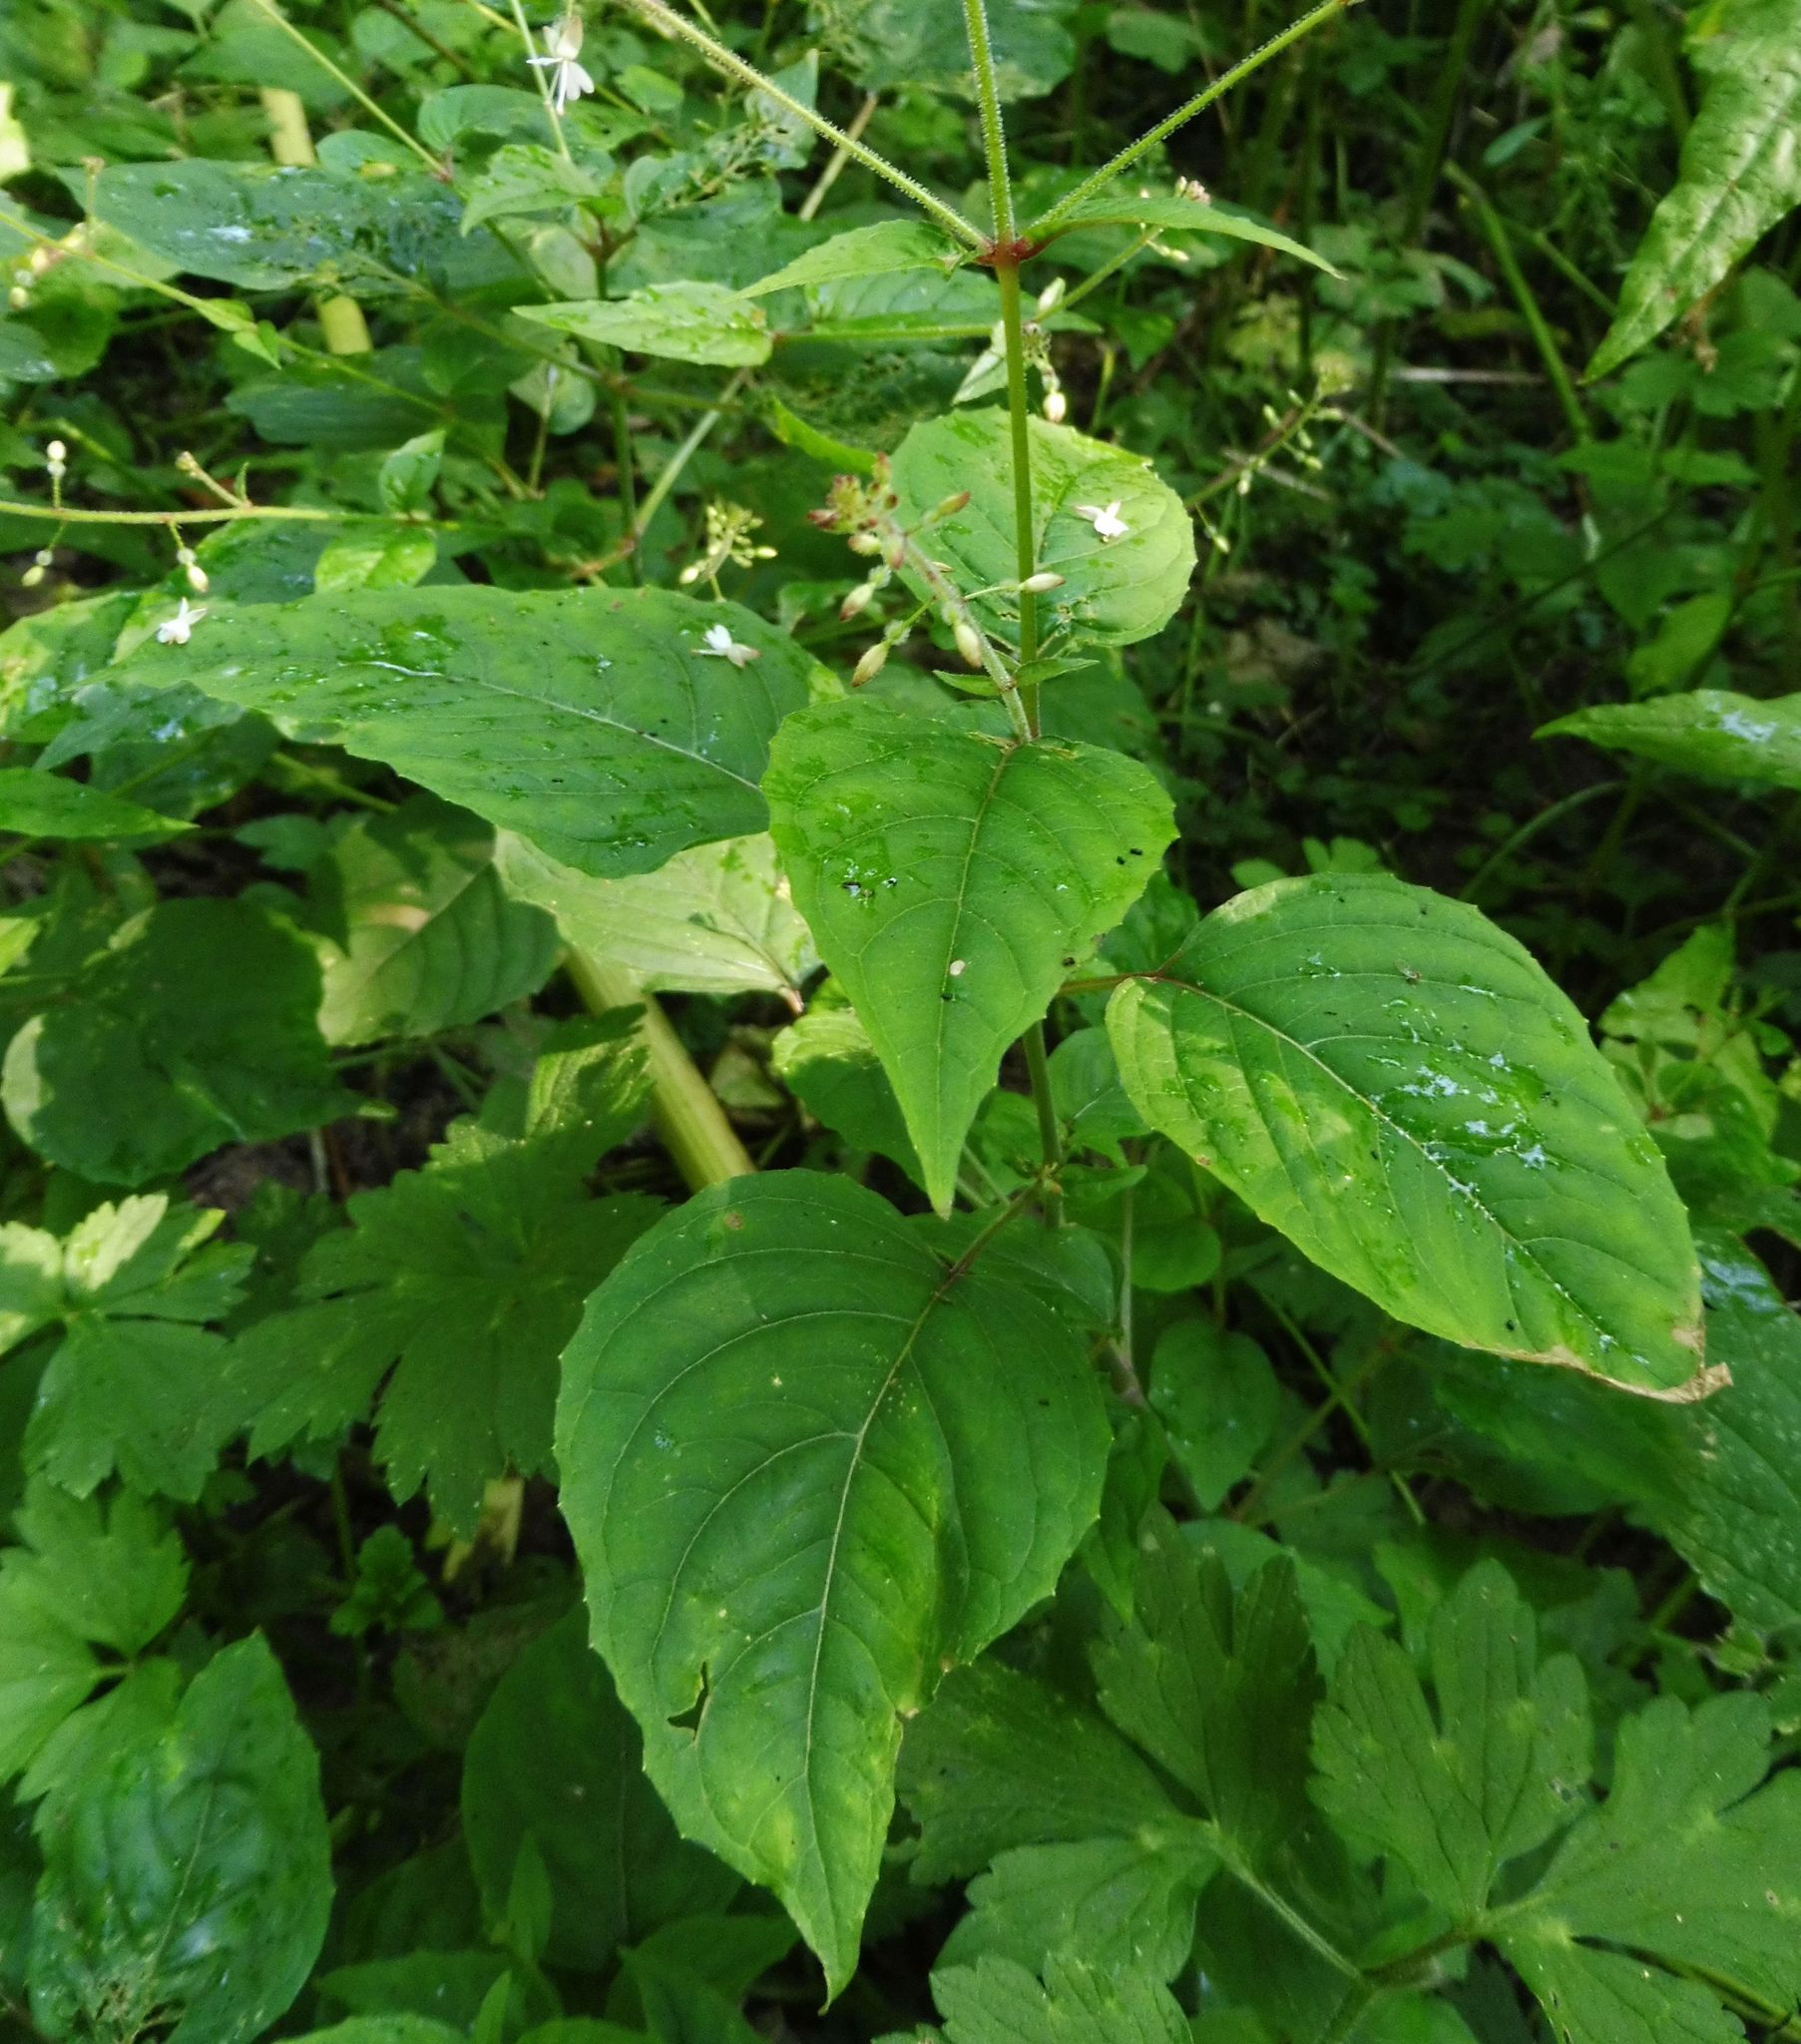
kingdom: Plantae
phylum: Tracheophyta
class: Magnoliopsida
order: Myrtales
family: Onagraceae
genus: Circaea
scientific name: Circaea lutetiana
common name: Enchanter's-nightshade
